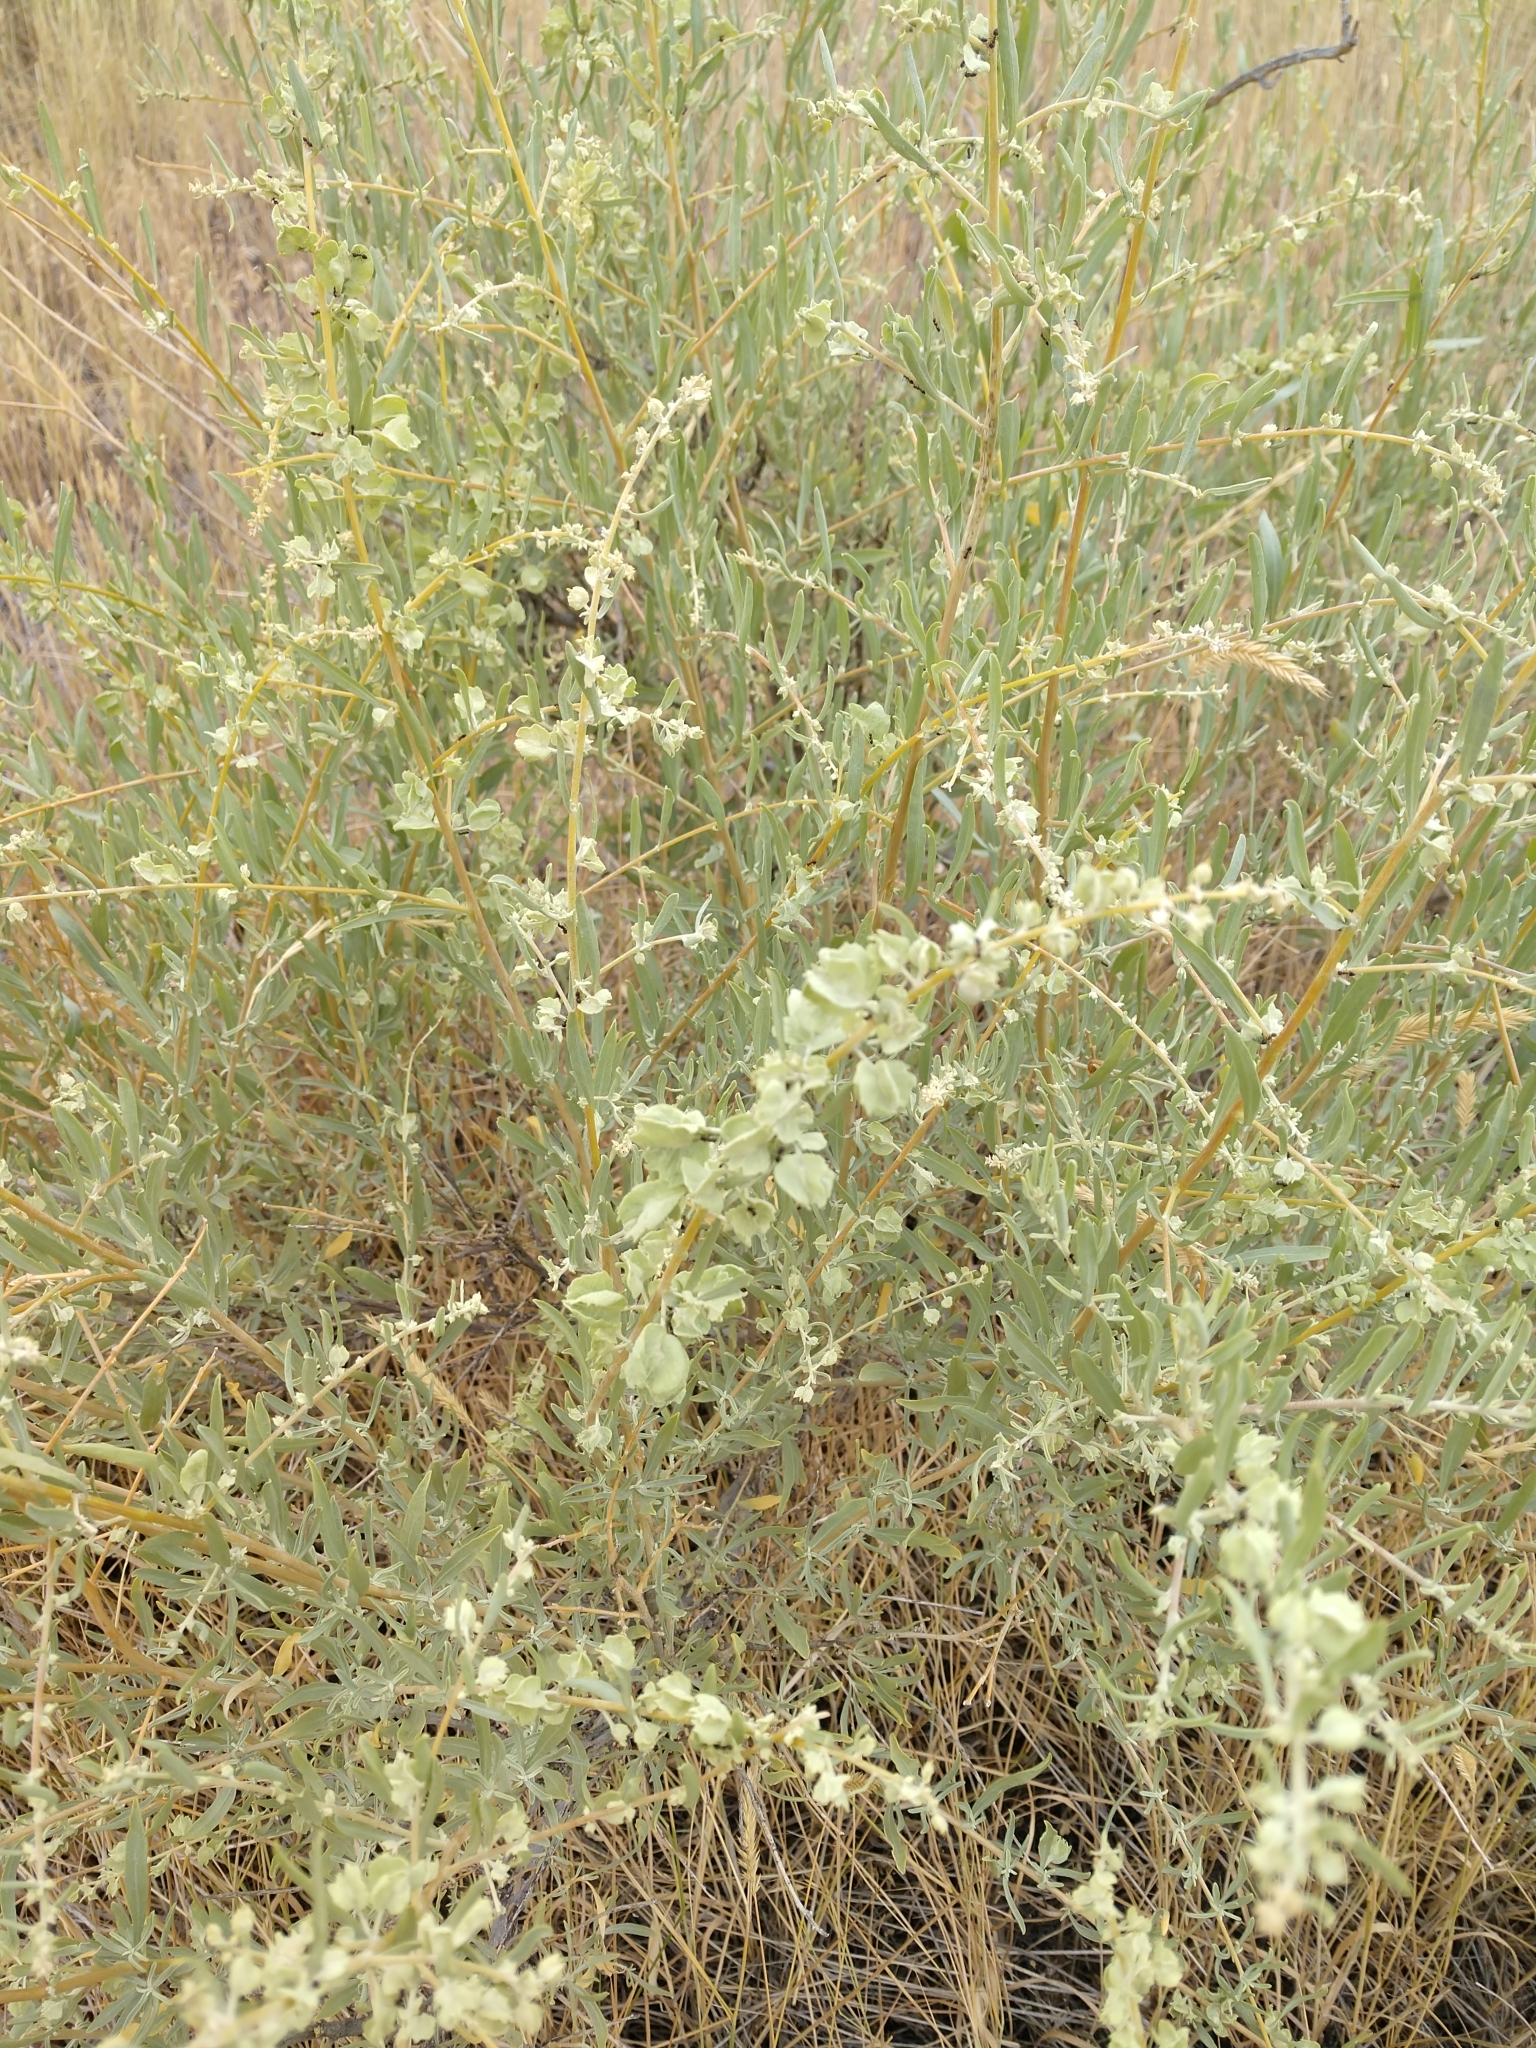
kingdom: Plantae
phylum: Tracheophyta
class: Magnoliopsida
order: Caryophyllales
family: Amaranthaceae
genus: Atriplex
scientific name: Atriplex canescens
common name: Four-wing saltbush
